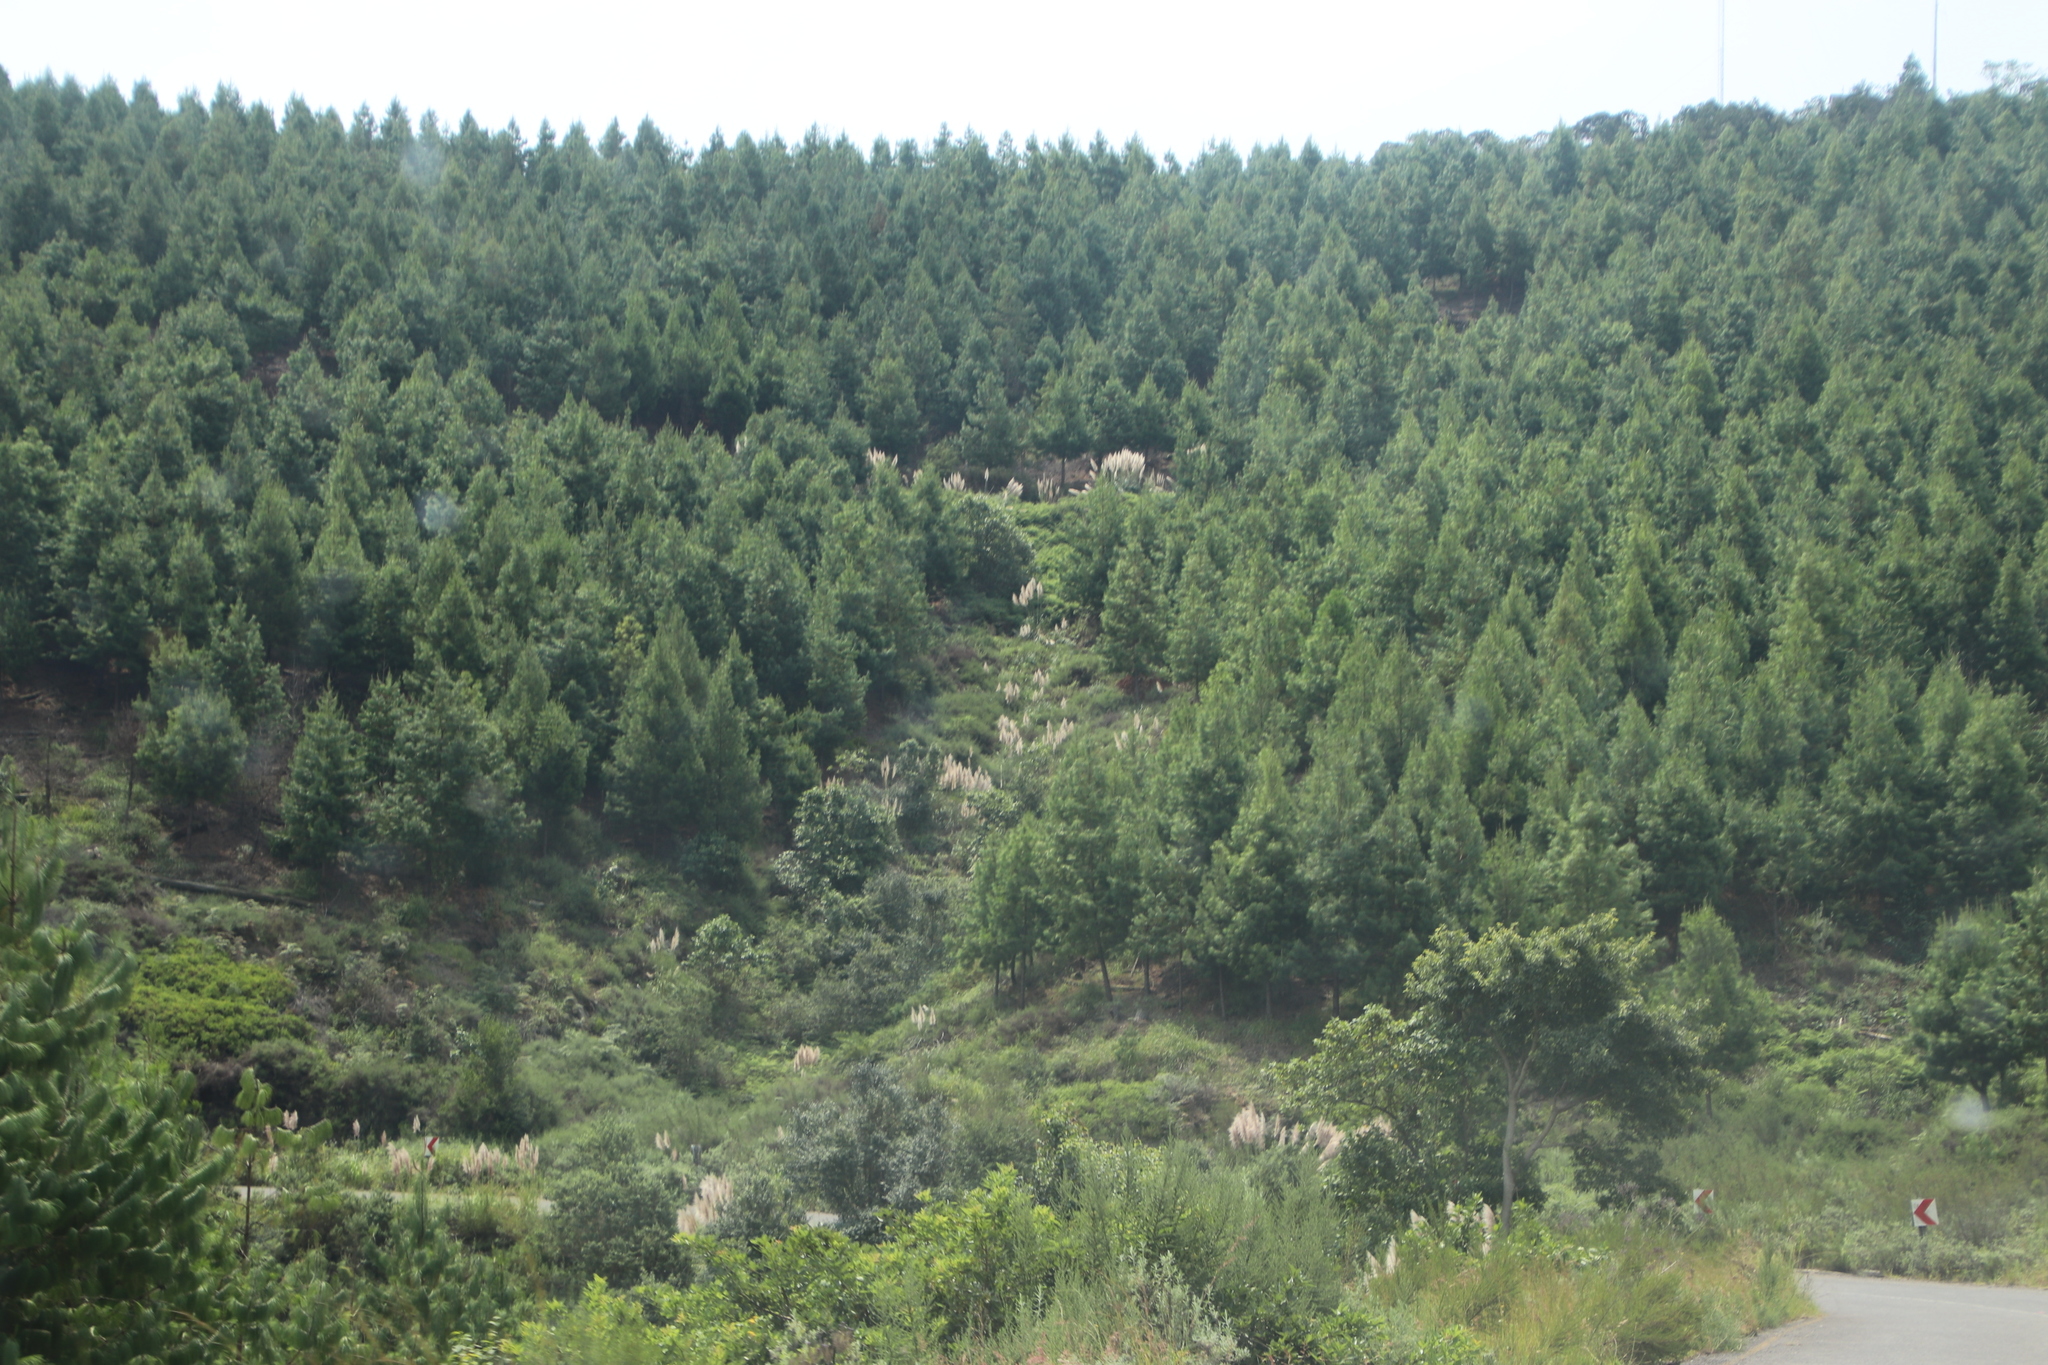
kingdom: Plantae
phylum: Tracheophyta
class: Liliopsida
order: Poales
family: Poaceae
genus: Cortaderia
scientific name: Cortaderia selloana
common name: Uruguayan pampas grass
